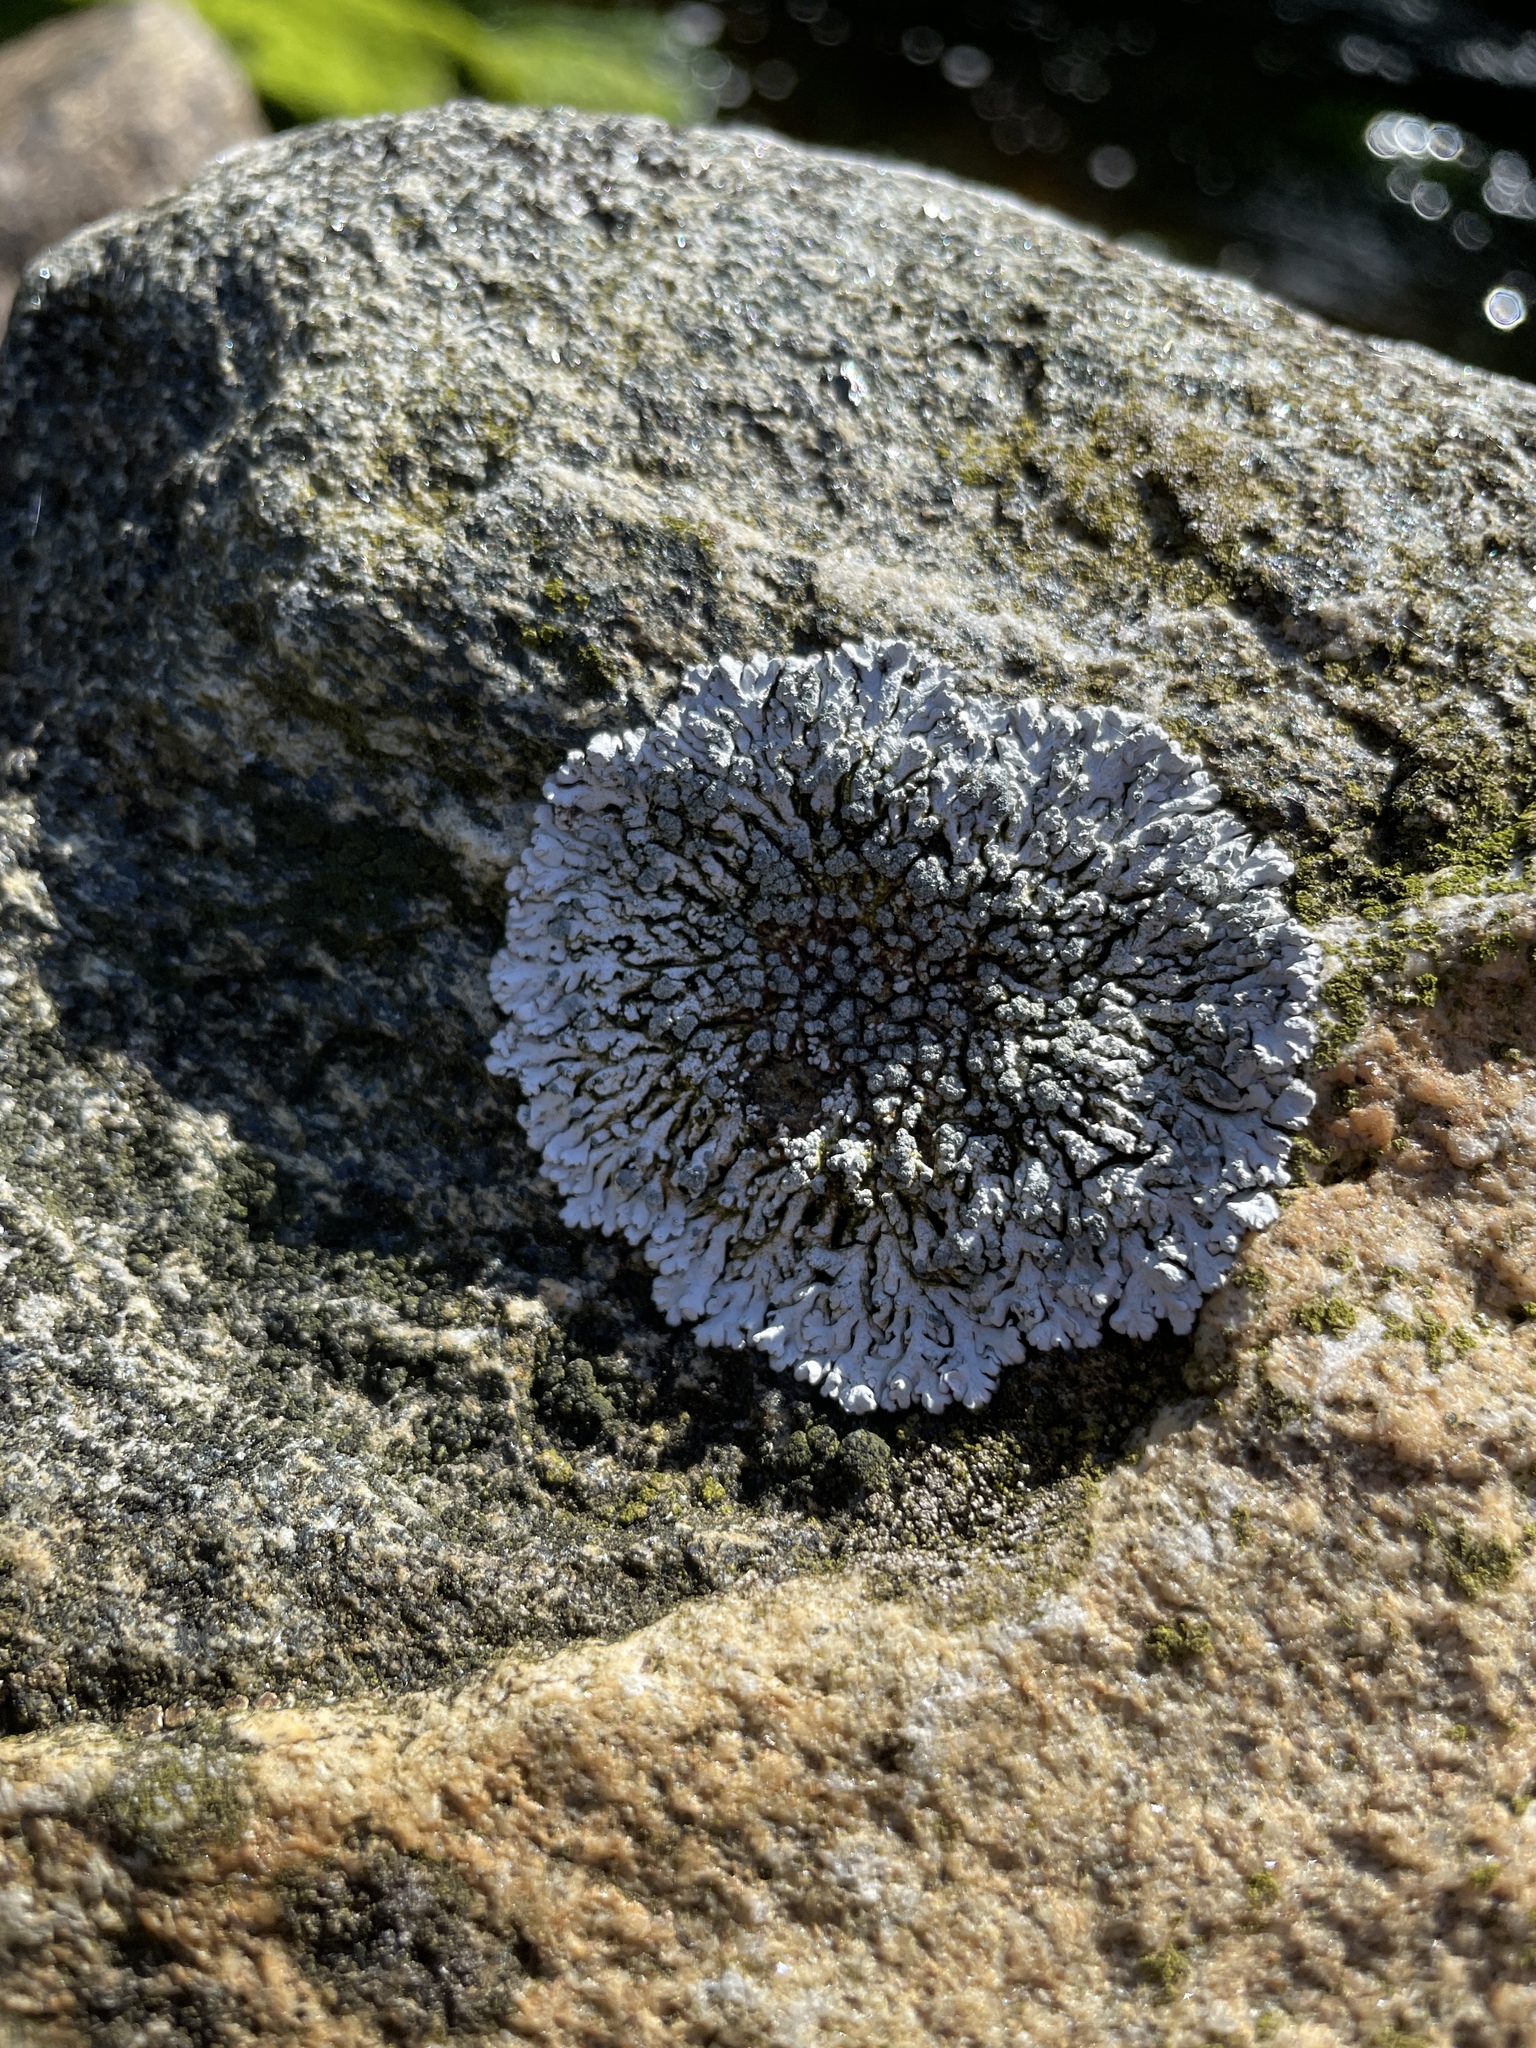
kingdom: Fungi
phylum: Ascomycota
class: Lecanoromycetes
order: Caliciales
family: Physciaceae
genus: Physcia
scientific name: Physcia caesia
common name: Blue-gray rosette lichen
